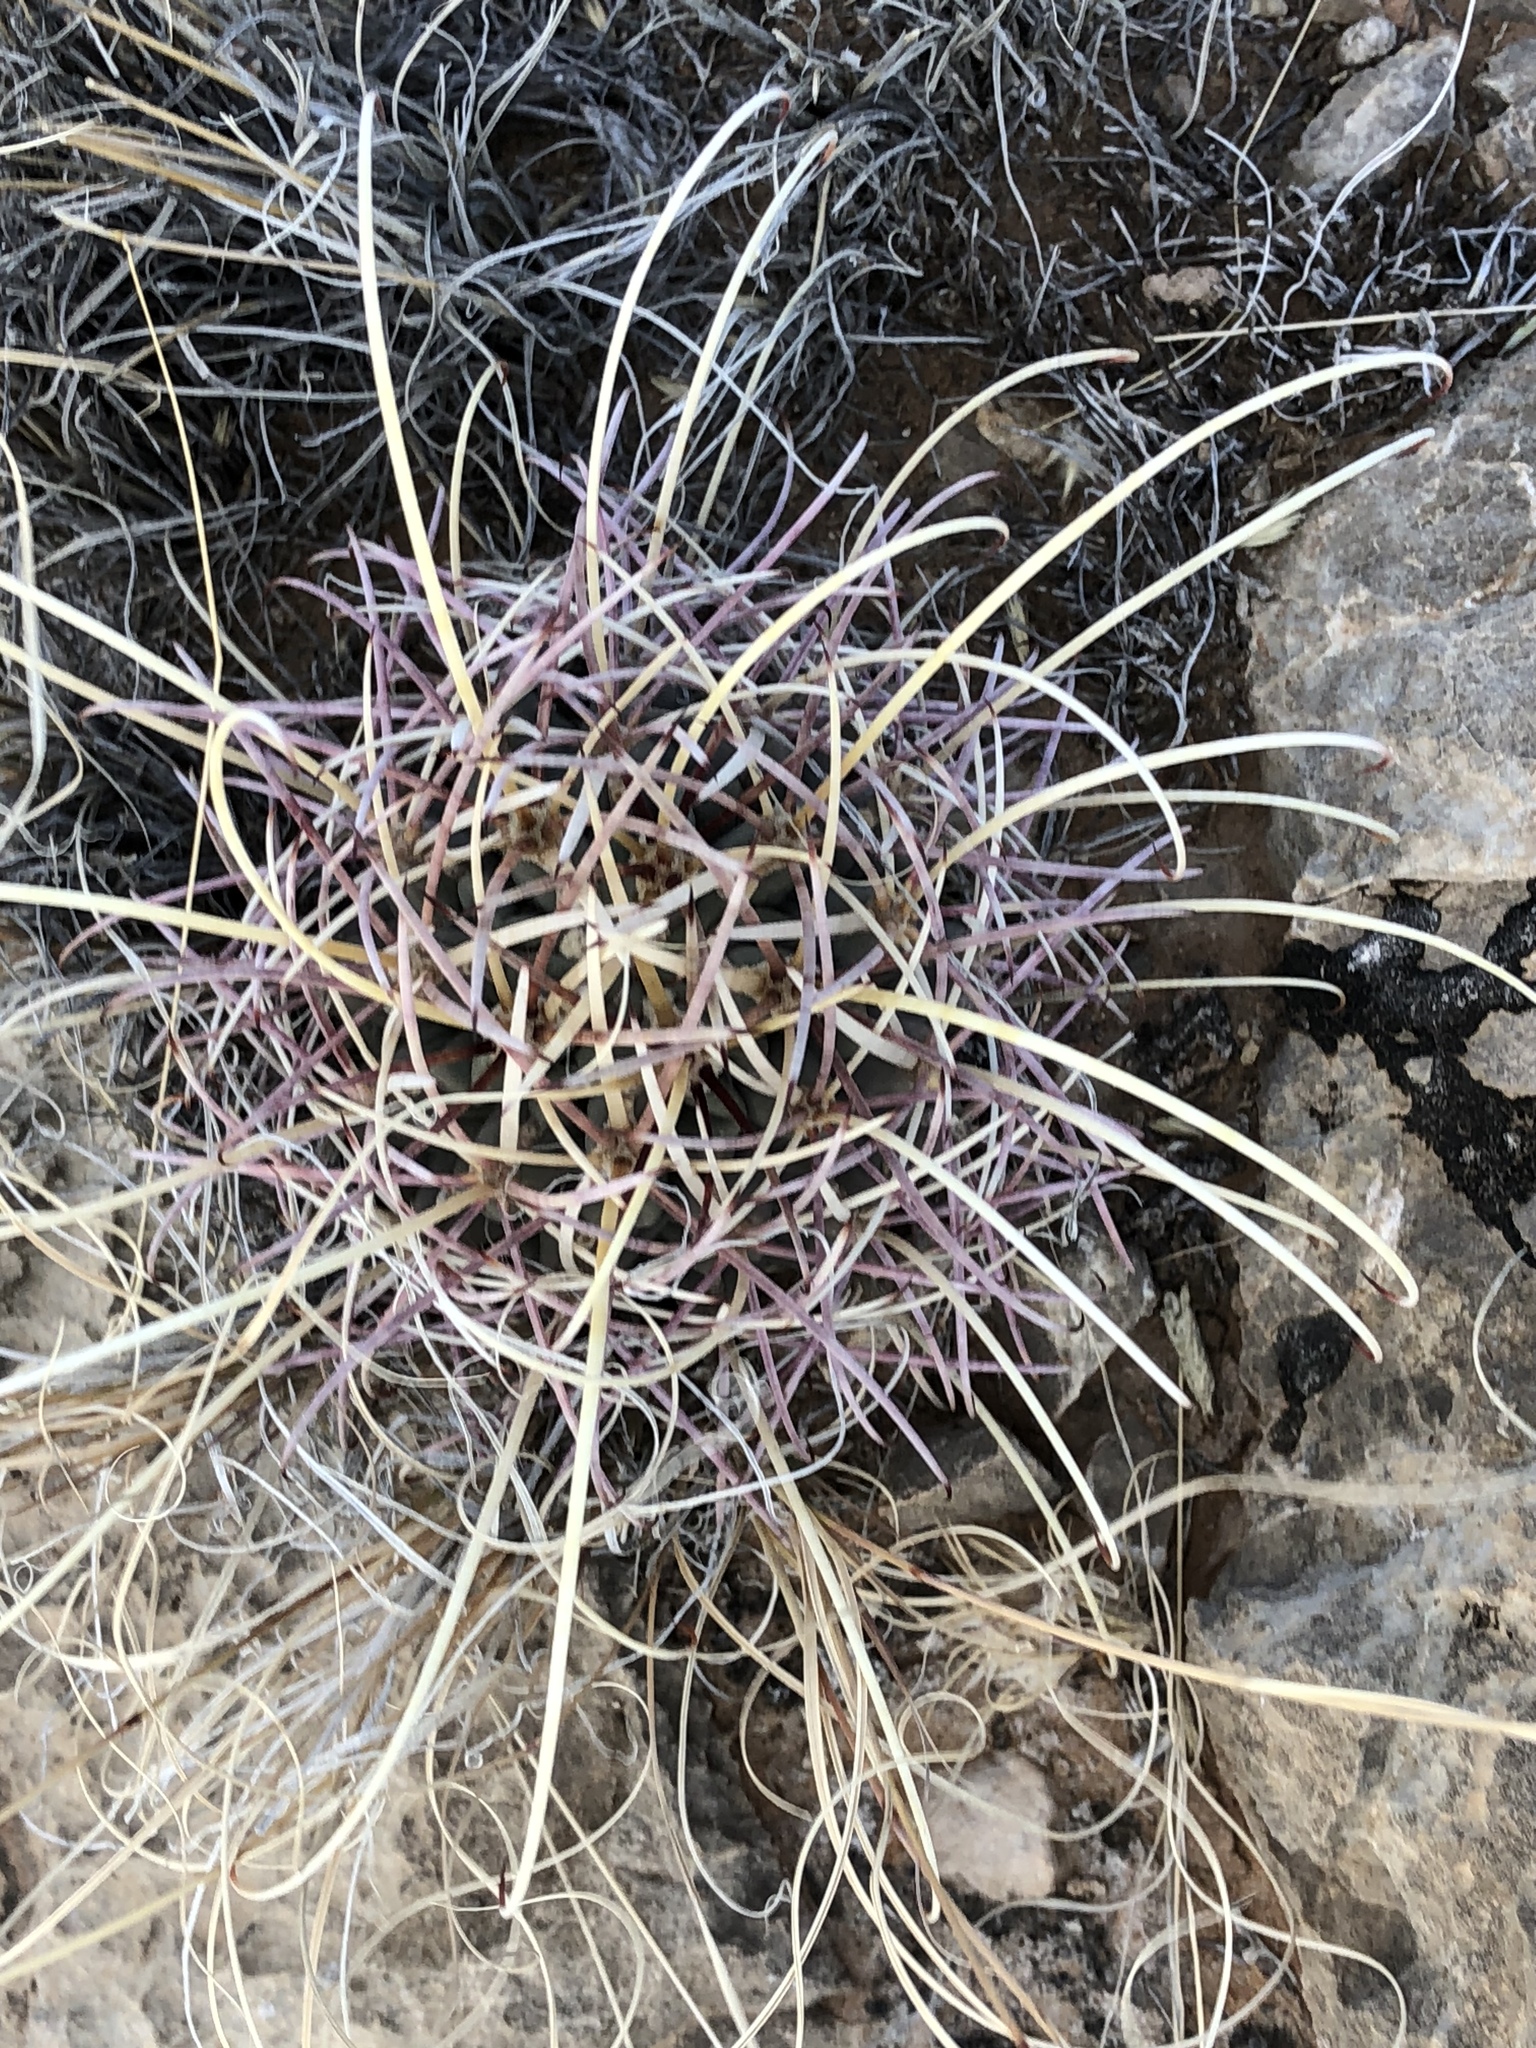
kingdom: Plantae
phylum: Tracheophyta
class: Magnoliopsida
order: Caryophyllales
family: Cactaceae
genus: Ferocactus
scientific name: Ferocactus uncinatus
